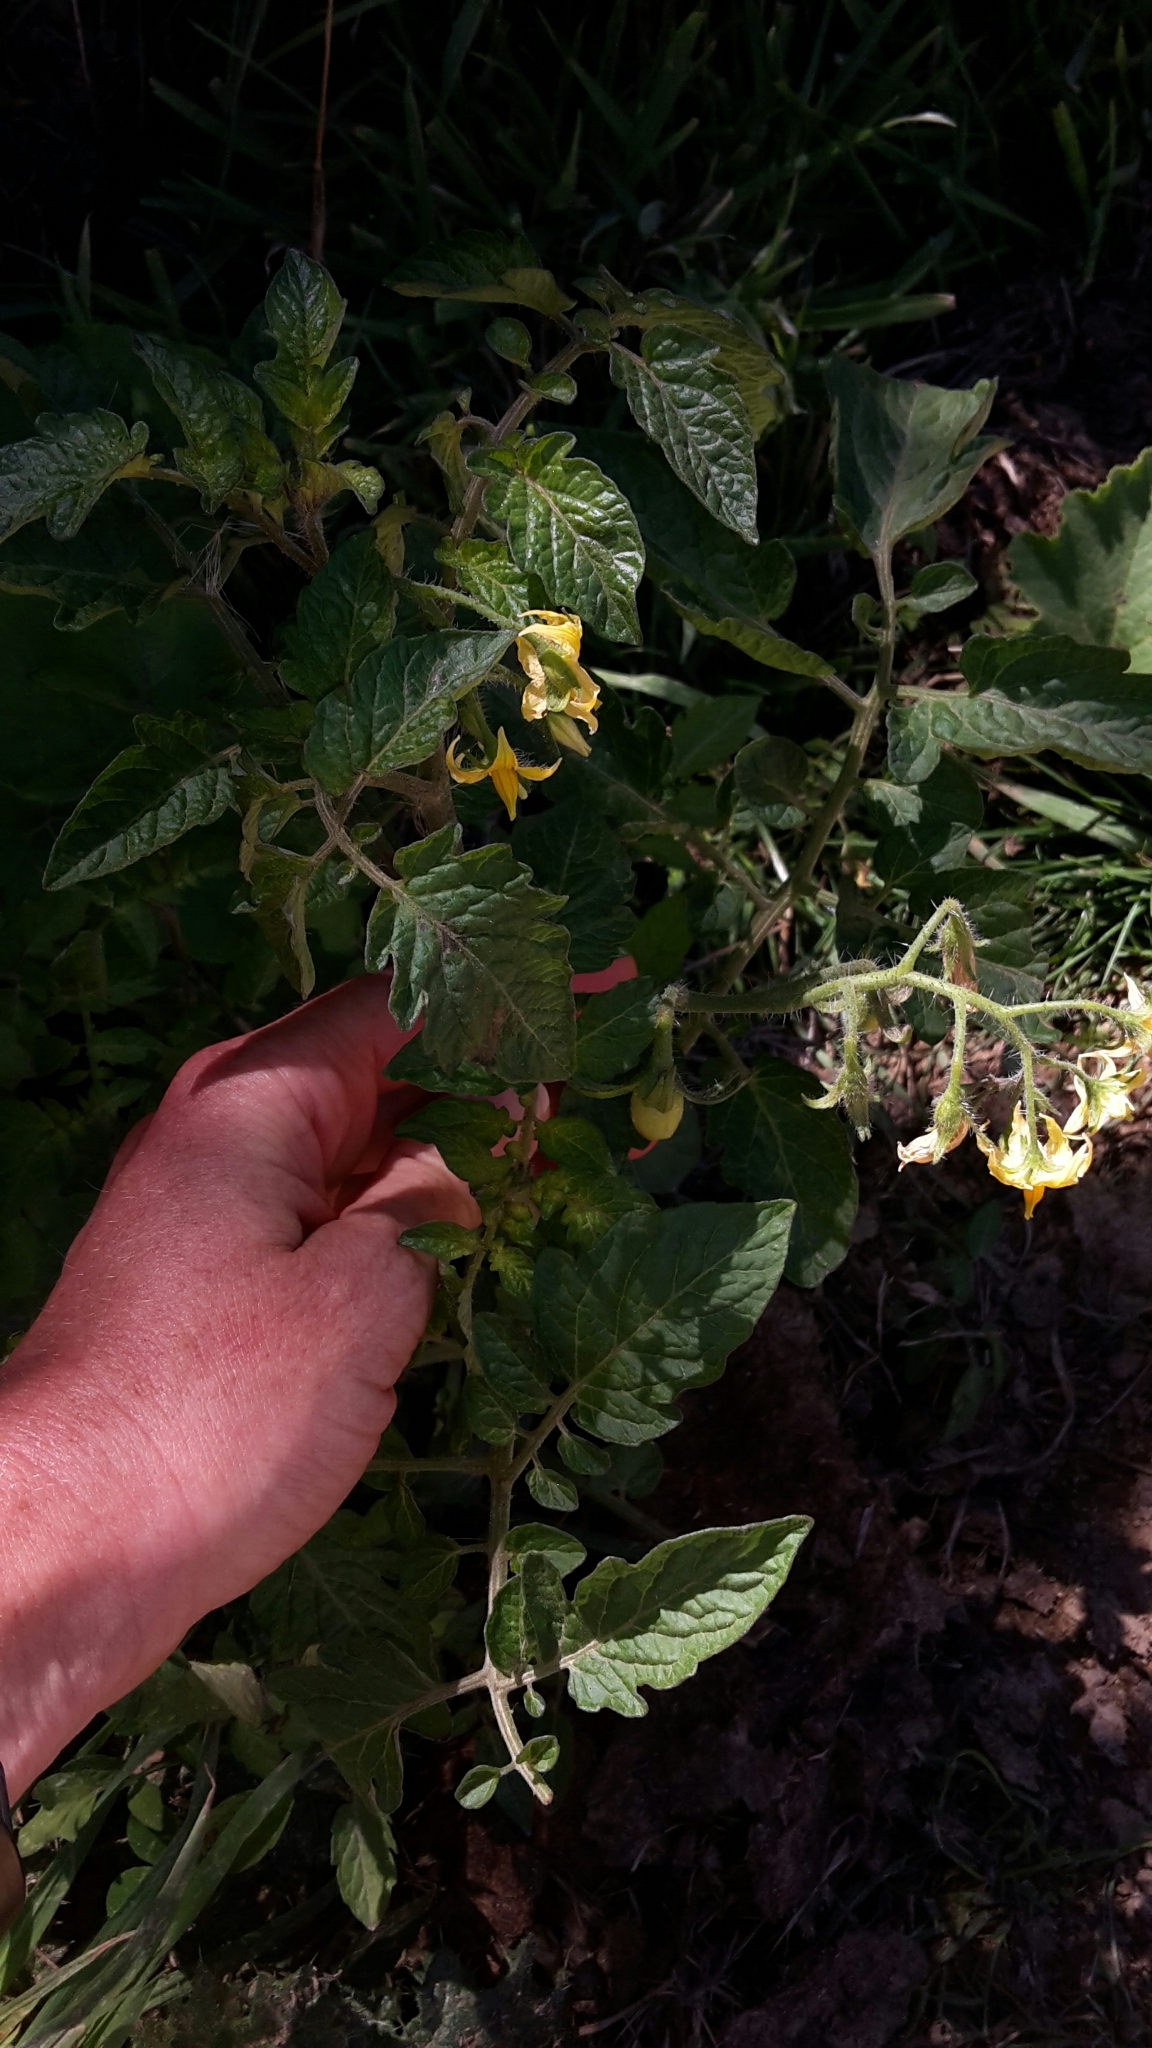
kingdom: Plantae
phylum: Tracheophyta
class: Magnoliopsida
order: Solanales
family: Solanaceae
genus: Solanum
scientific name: Solanum lycopersicum
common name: Garden tomato
